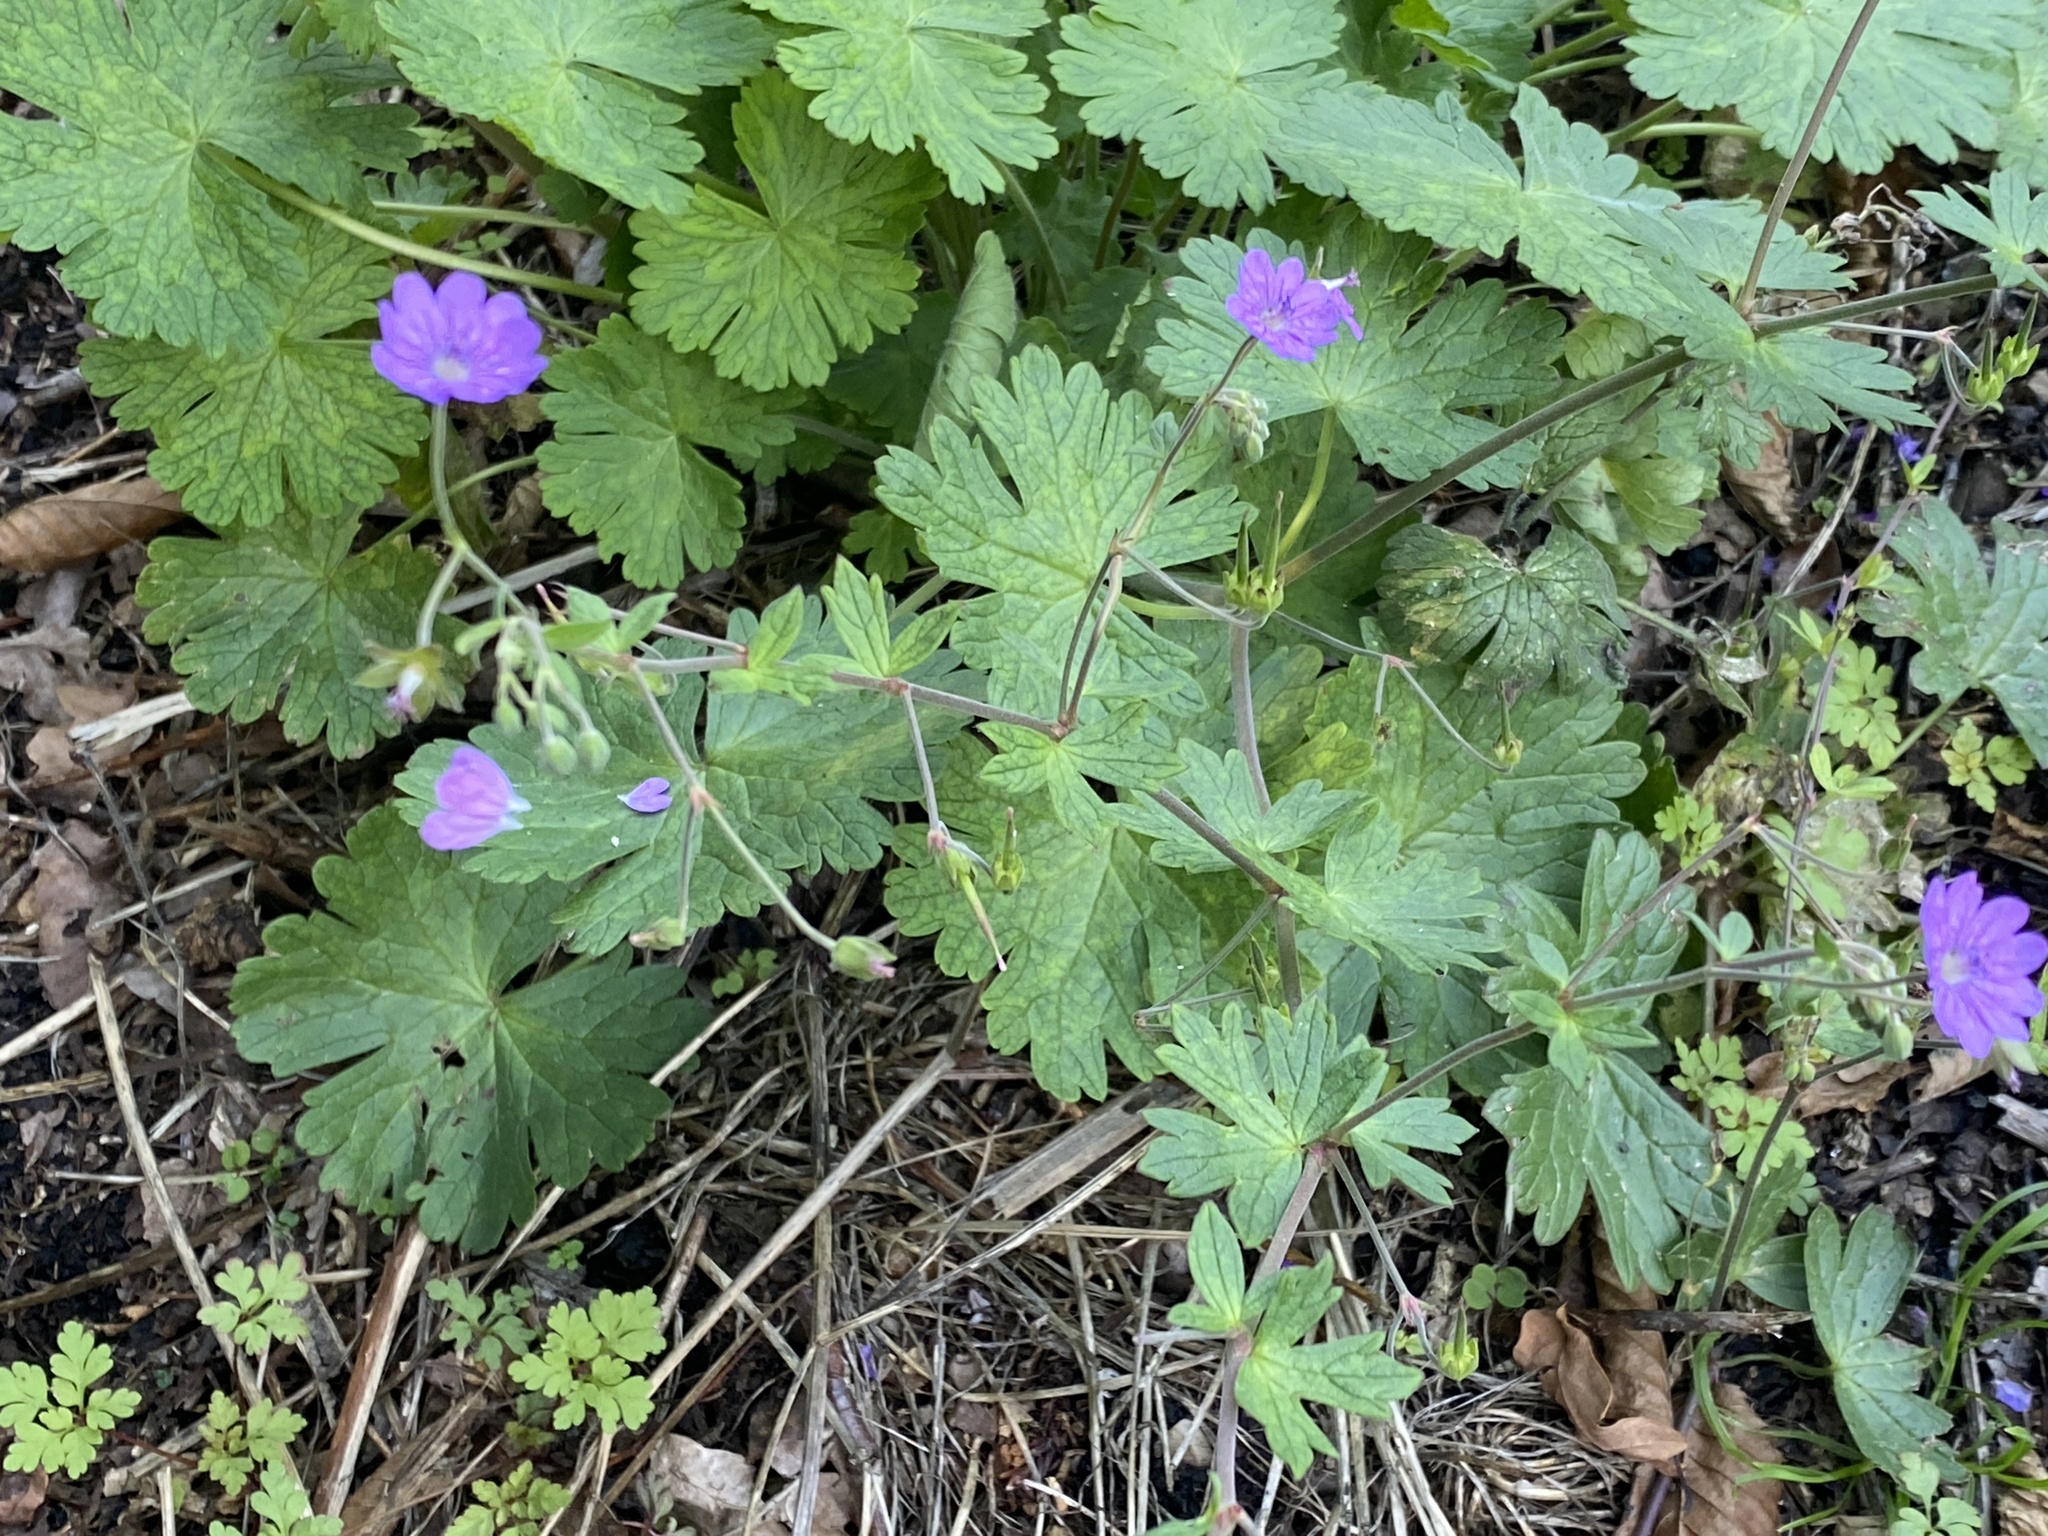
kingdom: Plantae
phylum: Tracheophyta
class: Magnoliopsida
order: Geraniales
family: Geraniaceae
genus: Geranium
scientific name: Geranium pyrenaicum
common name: Hedgerow crane's-bill
